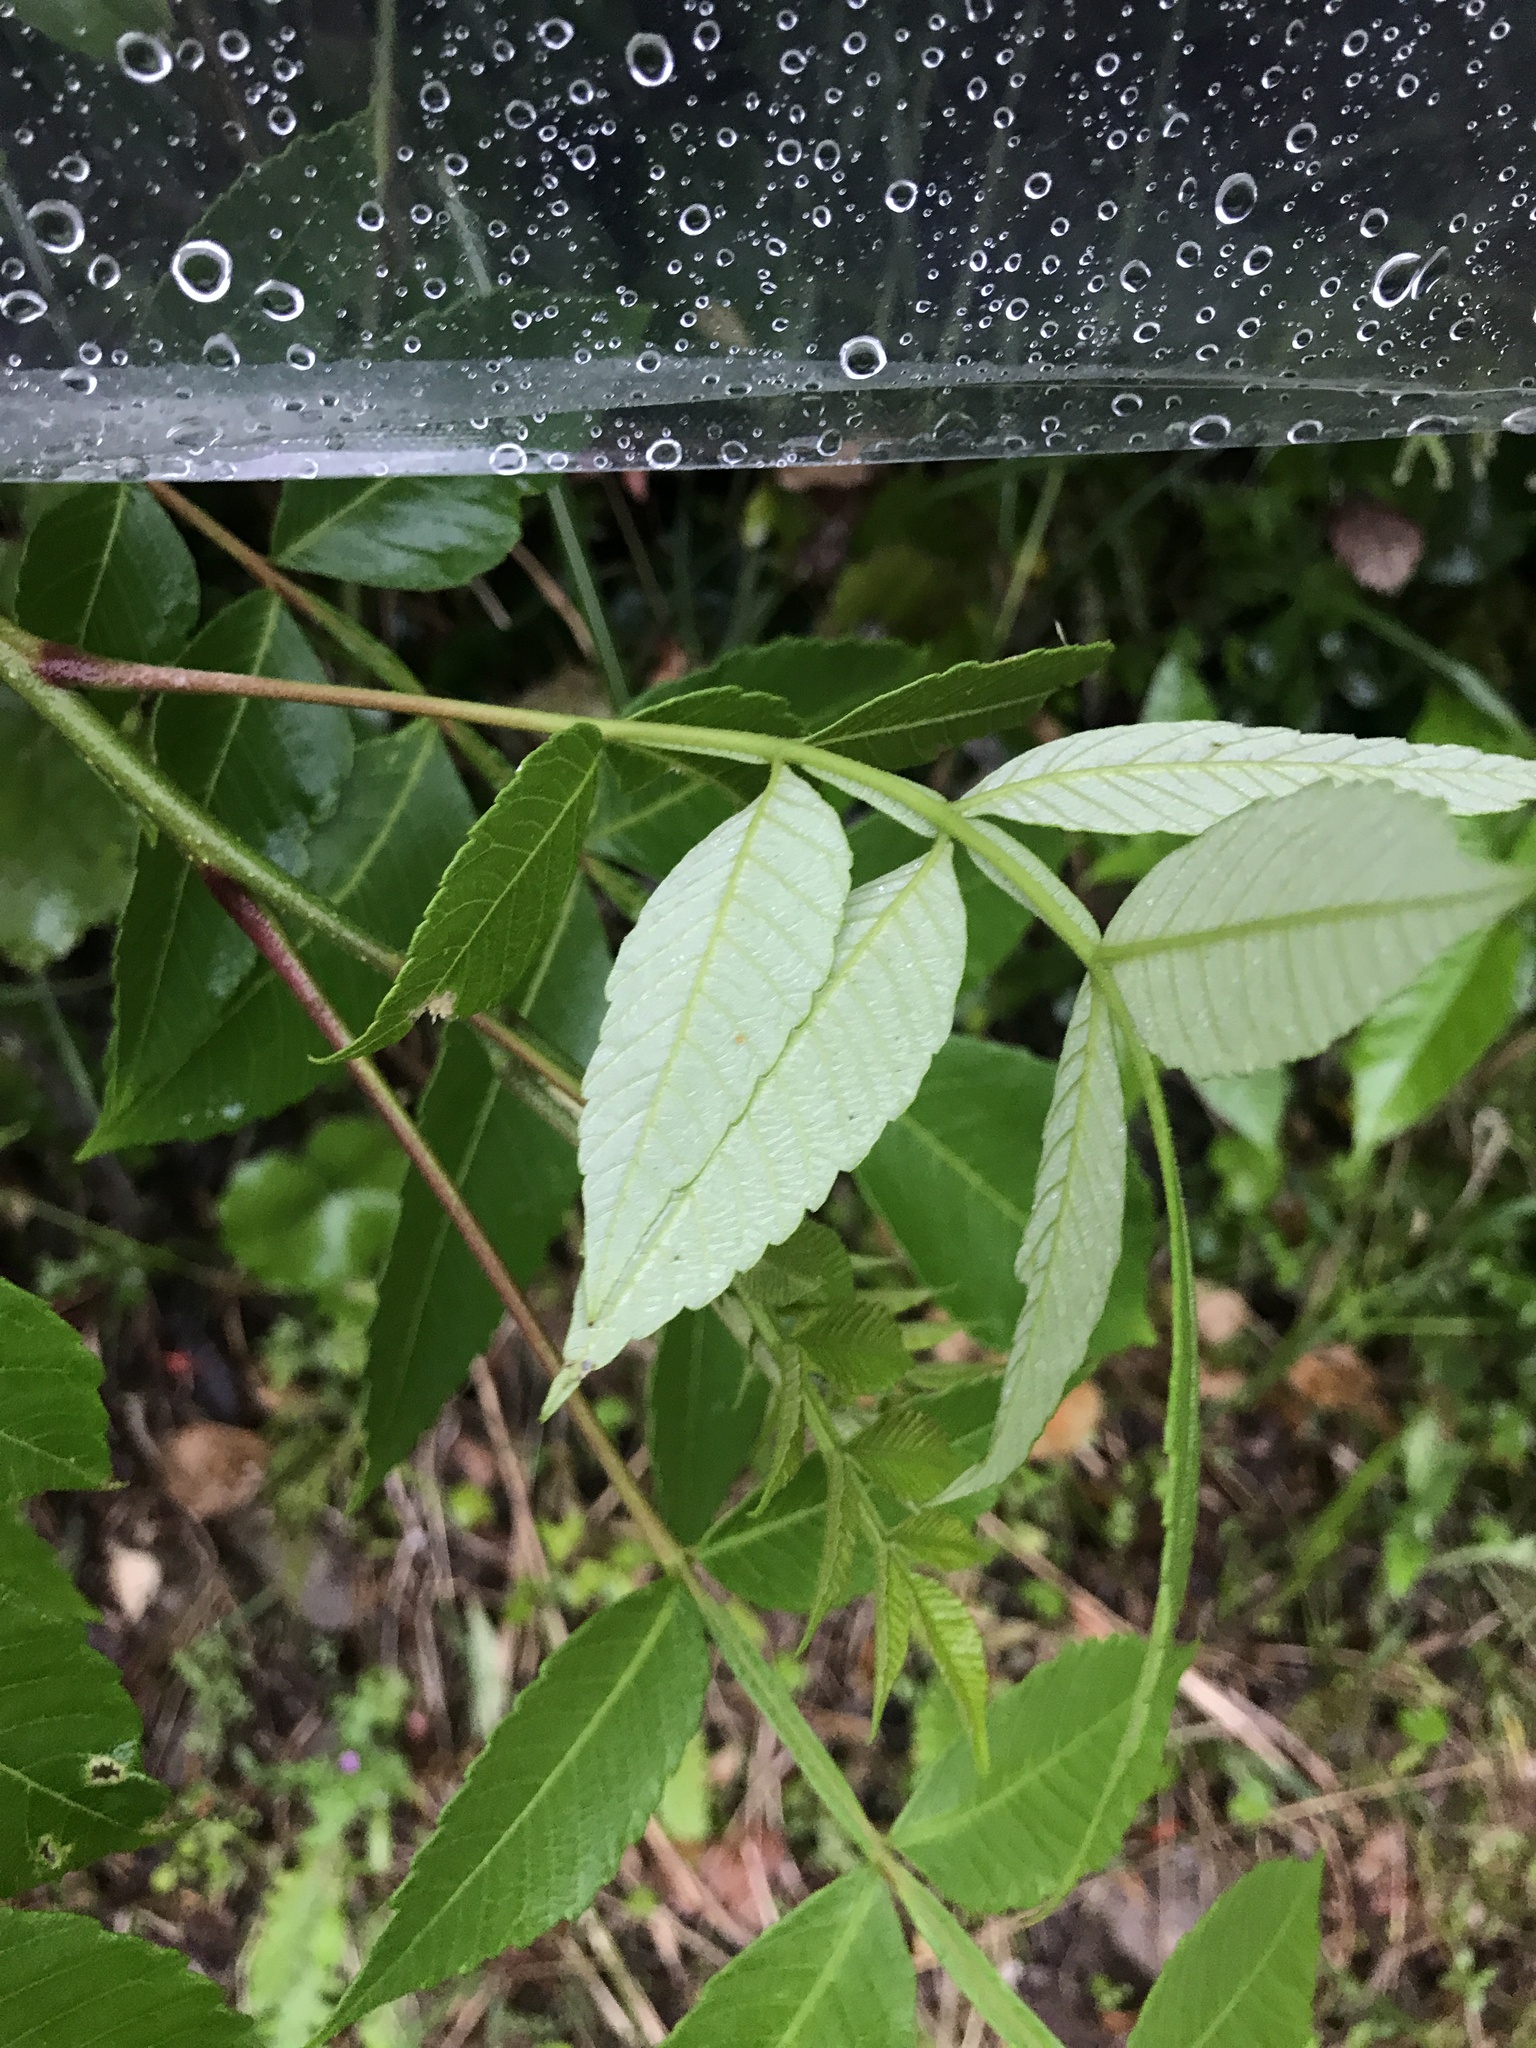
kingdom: Plantae
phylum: Tracheophyta
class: Magnoliopsida
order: Sapindales
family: Anacardiaceae
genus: Rhus
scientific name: Rhus chinensis
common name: Chinese gall
